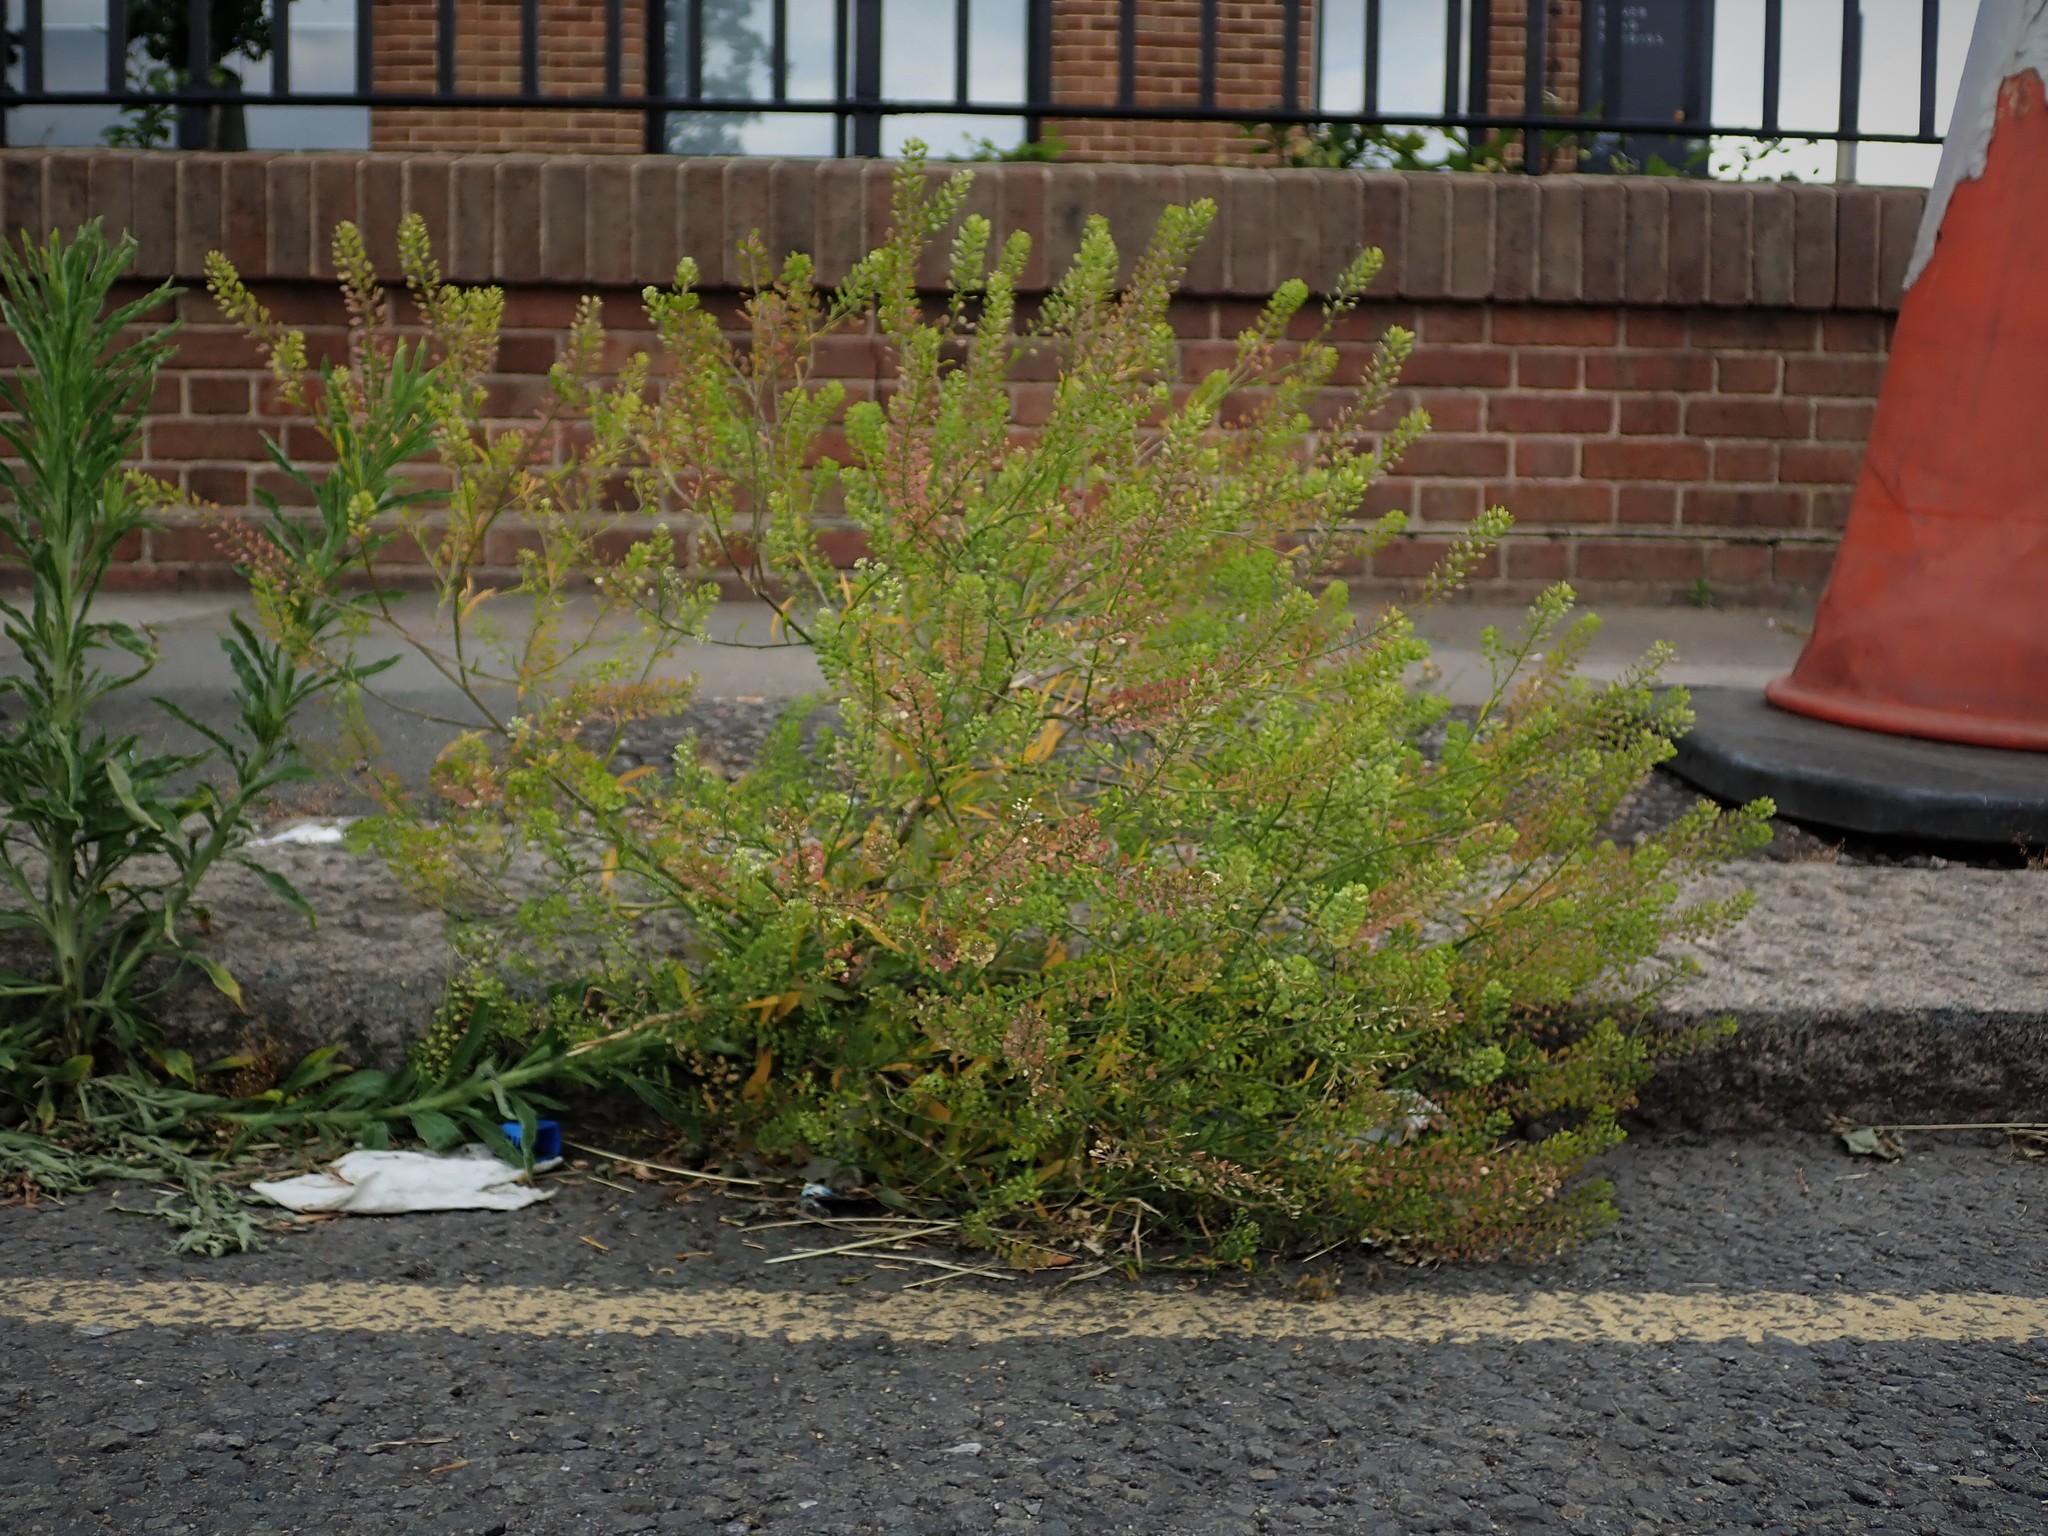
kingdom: Plantae
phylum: Tracheophyta
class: Magnoliopsida
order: Brassicales
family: Brassicaceae
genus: Lepidium
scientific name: Lepidium virginicum
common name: Least pepperwort
